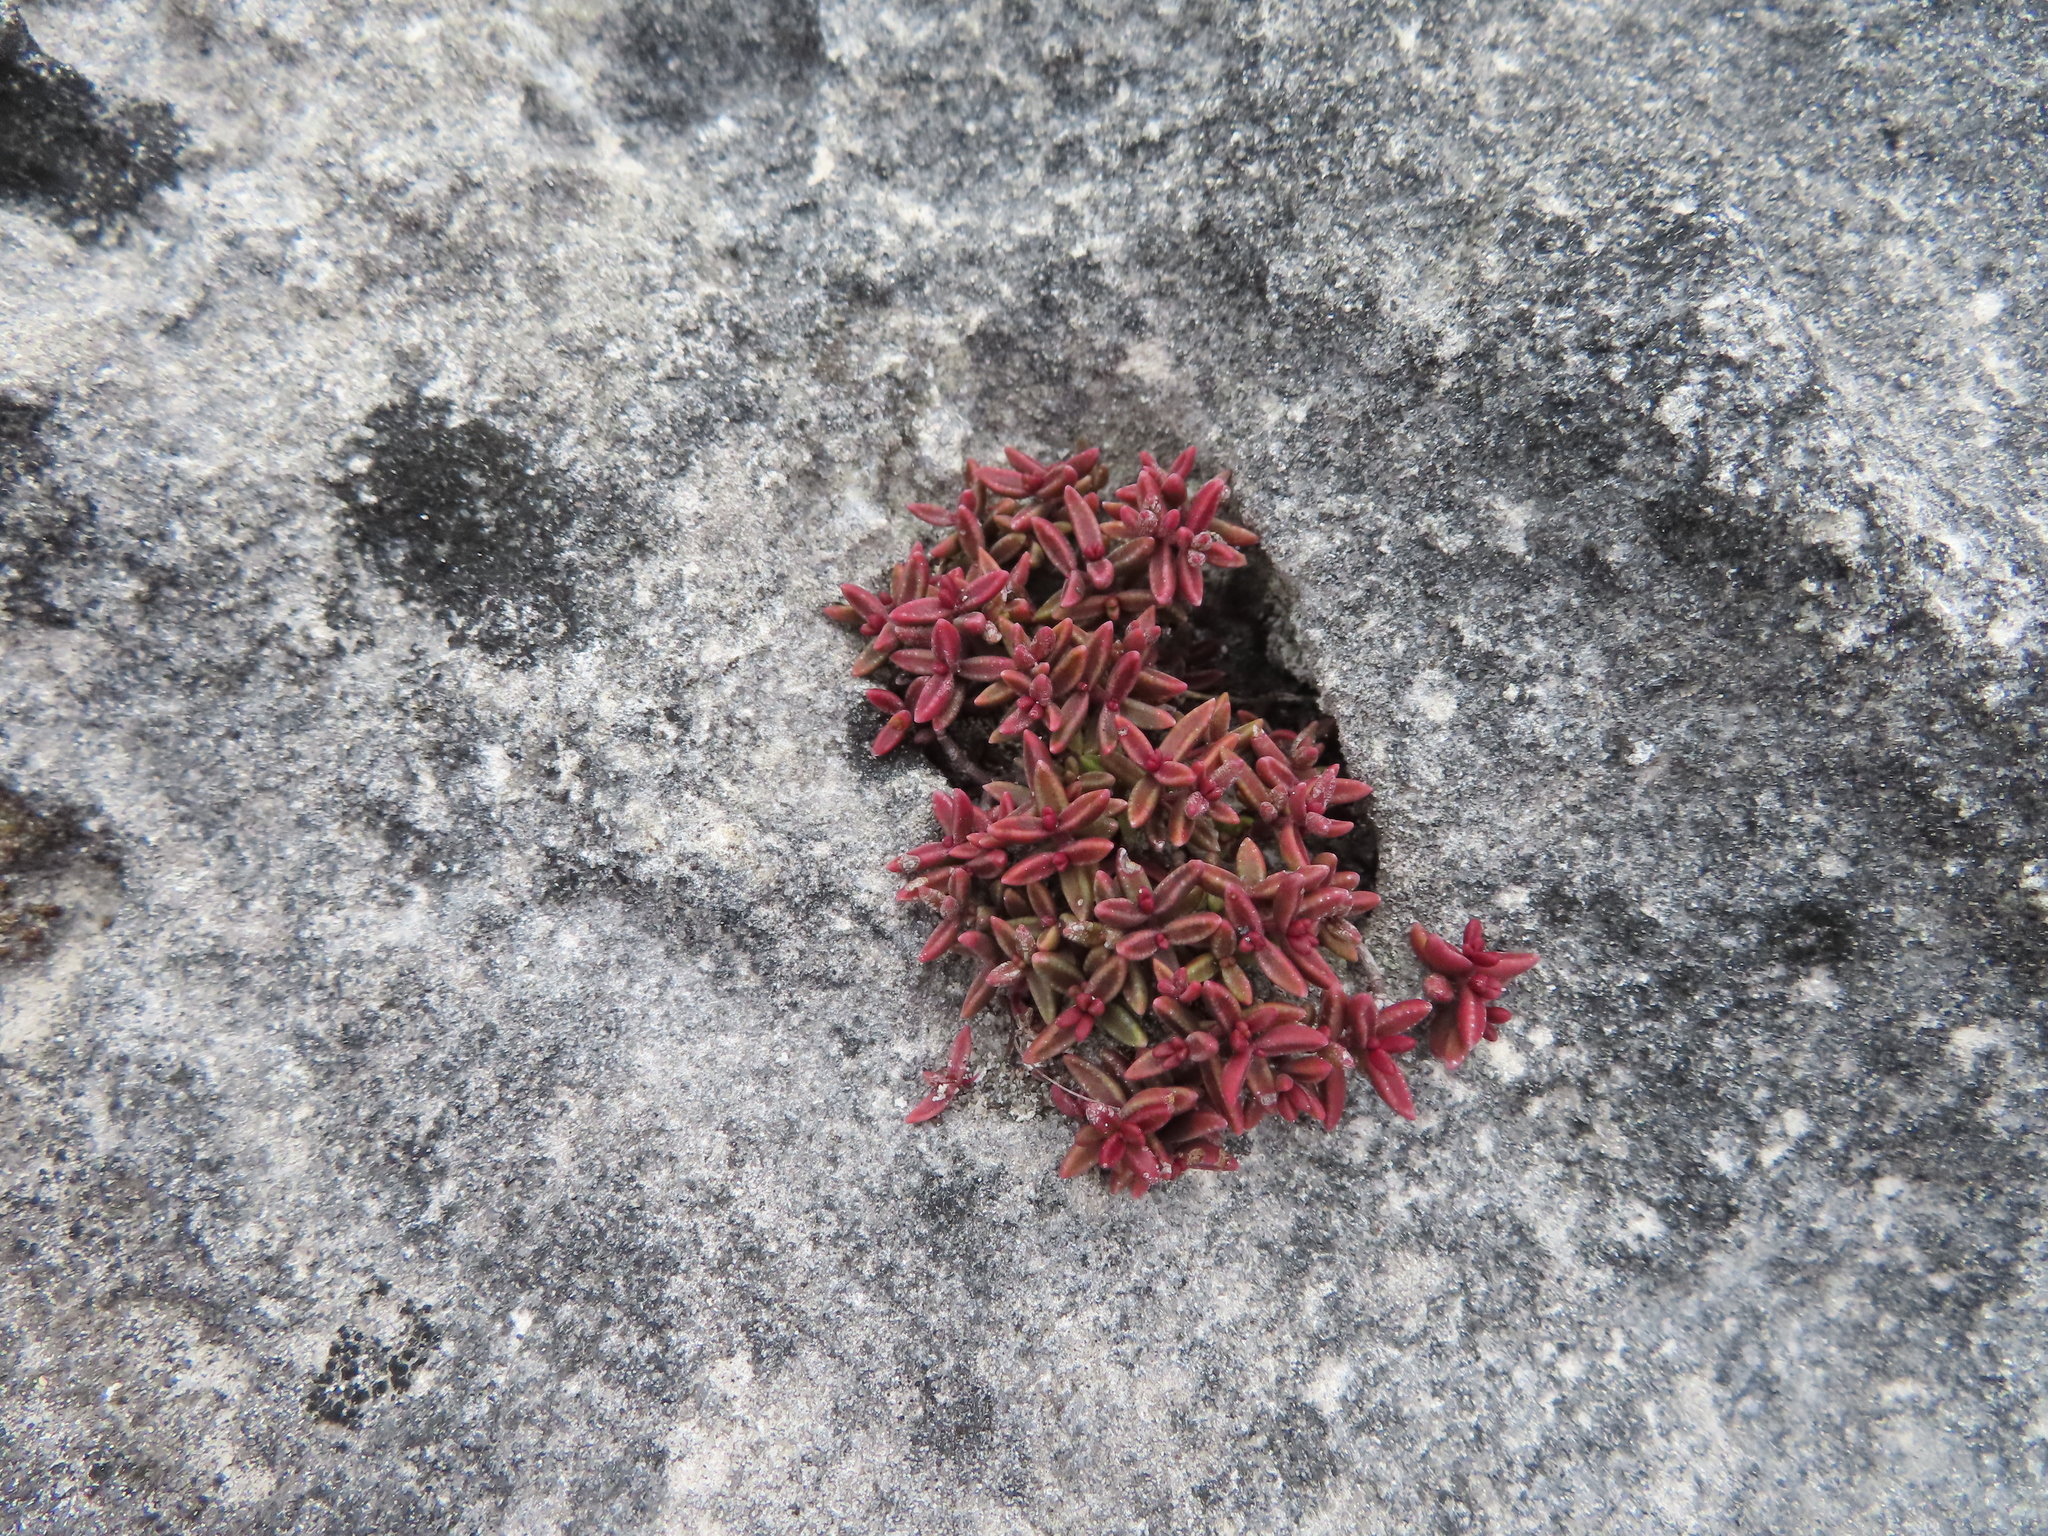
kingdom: Plantae
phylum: Tracheophyta
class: Magnoliopsida
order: Saxifragales
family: Crassulaceae
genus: Crassula
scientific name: Crassula expansa
